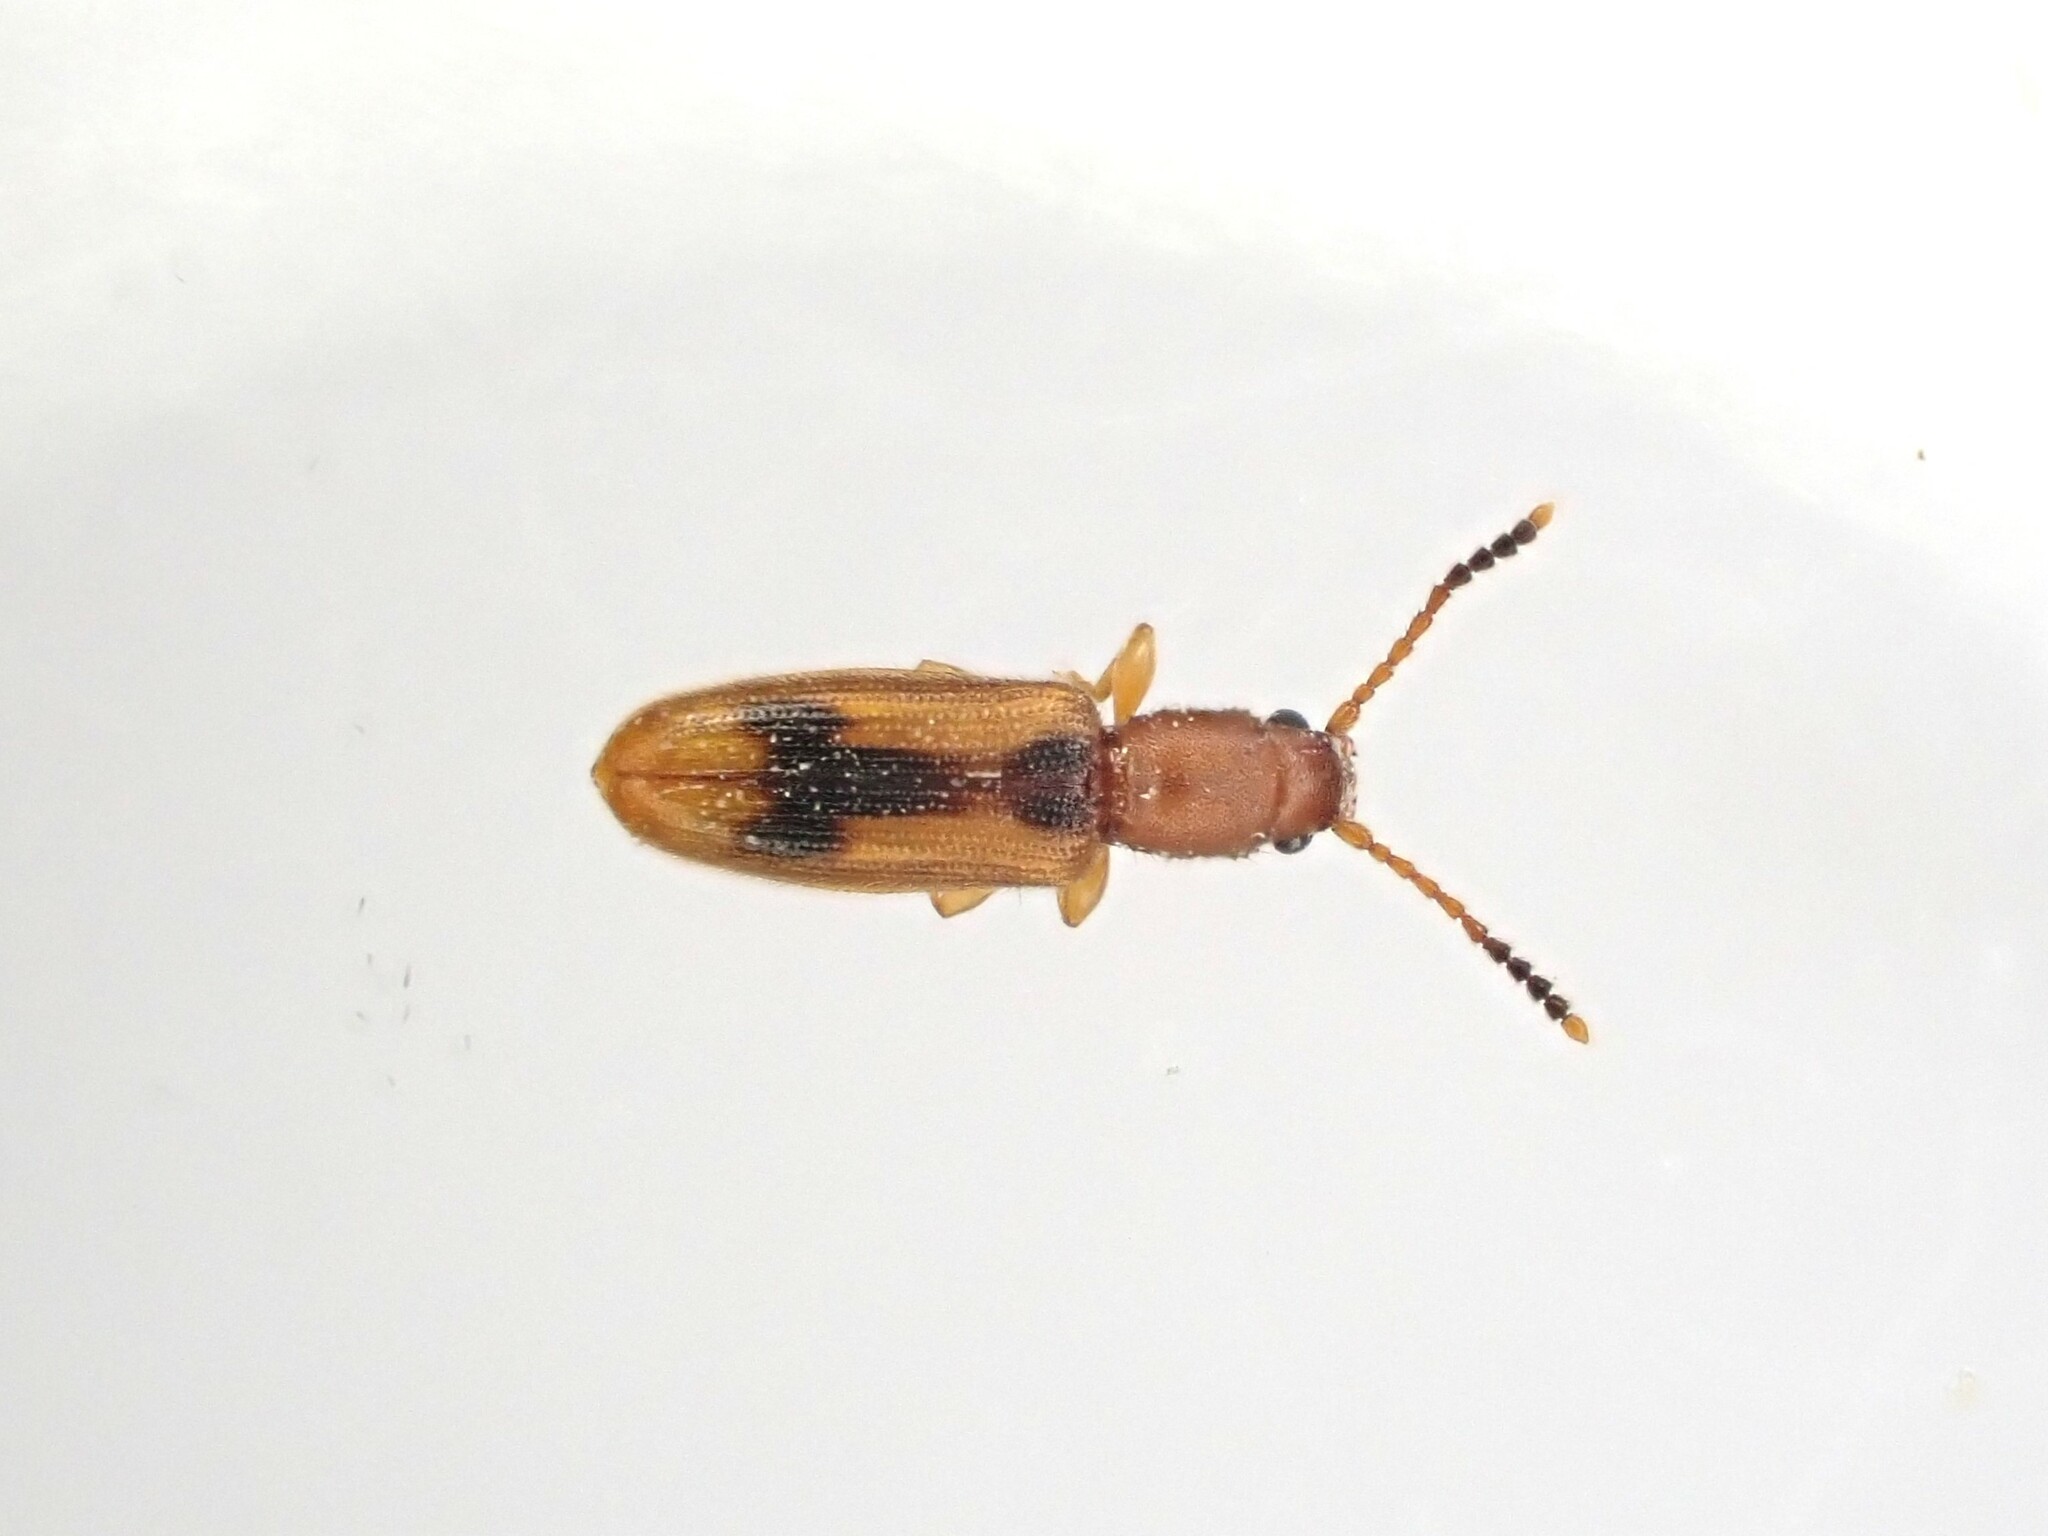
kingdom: Animalia
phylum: Arthropoda
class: Insecta
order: Coleoptera
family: Silvanidae
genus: Cryptamorpha
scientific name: Cryptamorpha desjardinsi
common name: Cryptamorpha
